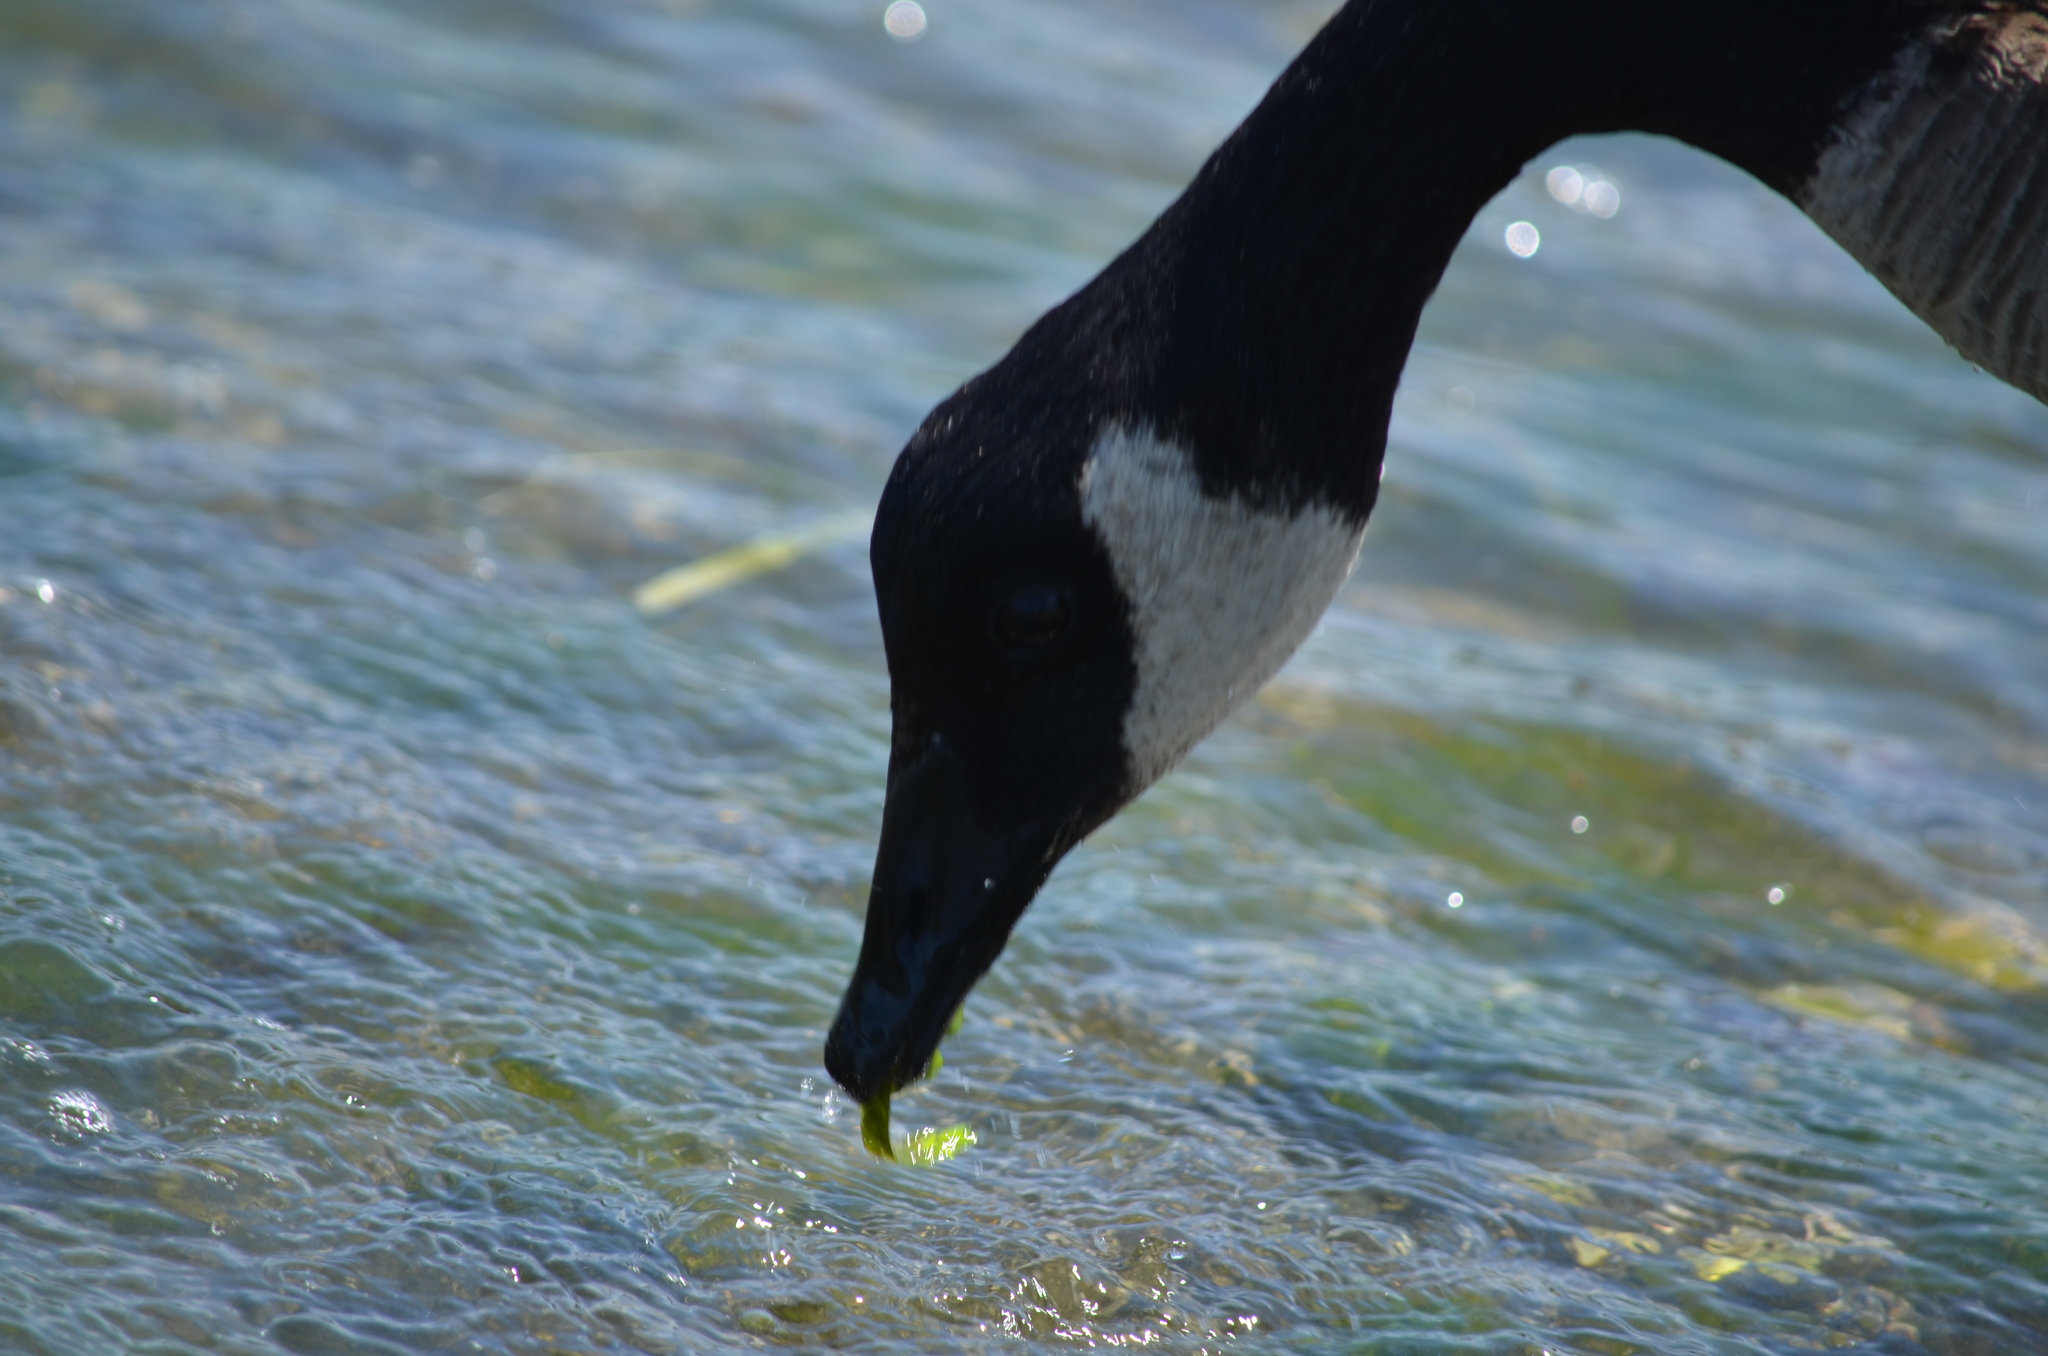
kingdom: Animalia
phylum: Chordata
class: Aves
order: Anseriformes
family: Anatidae
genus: Branta
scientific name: Branta canadensis
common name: Canada goose
